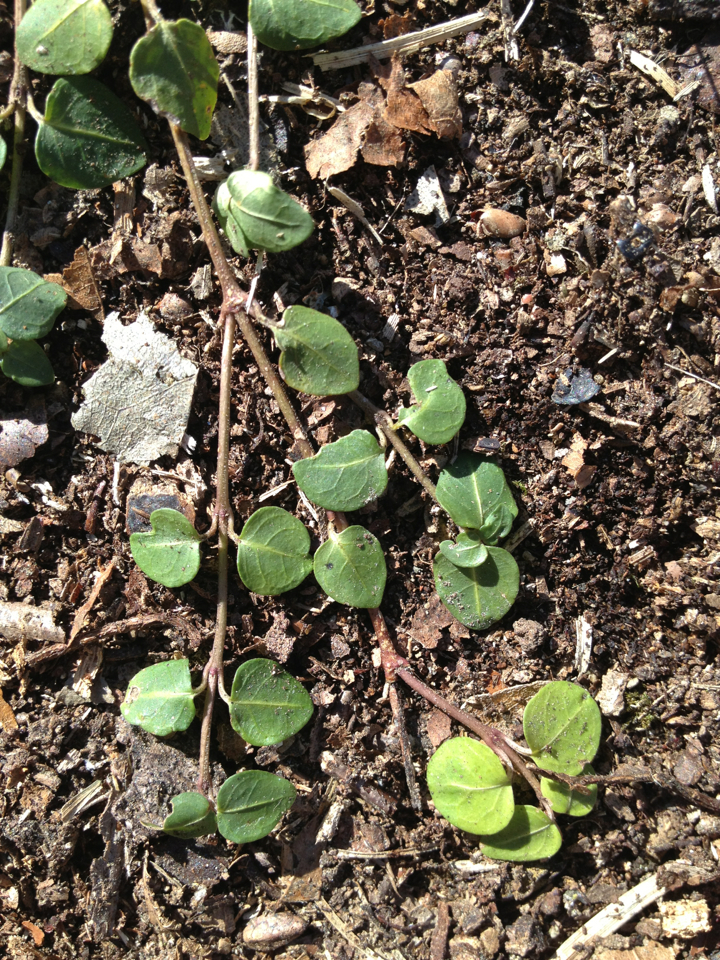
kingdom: Plantae
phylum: Tracheophyta
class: Magnoliopsida
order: Gentianales
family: Rubiaceae
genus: Mitchella
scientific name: Mitchella repens
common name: Partridge-berry
